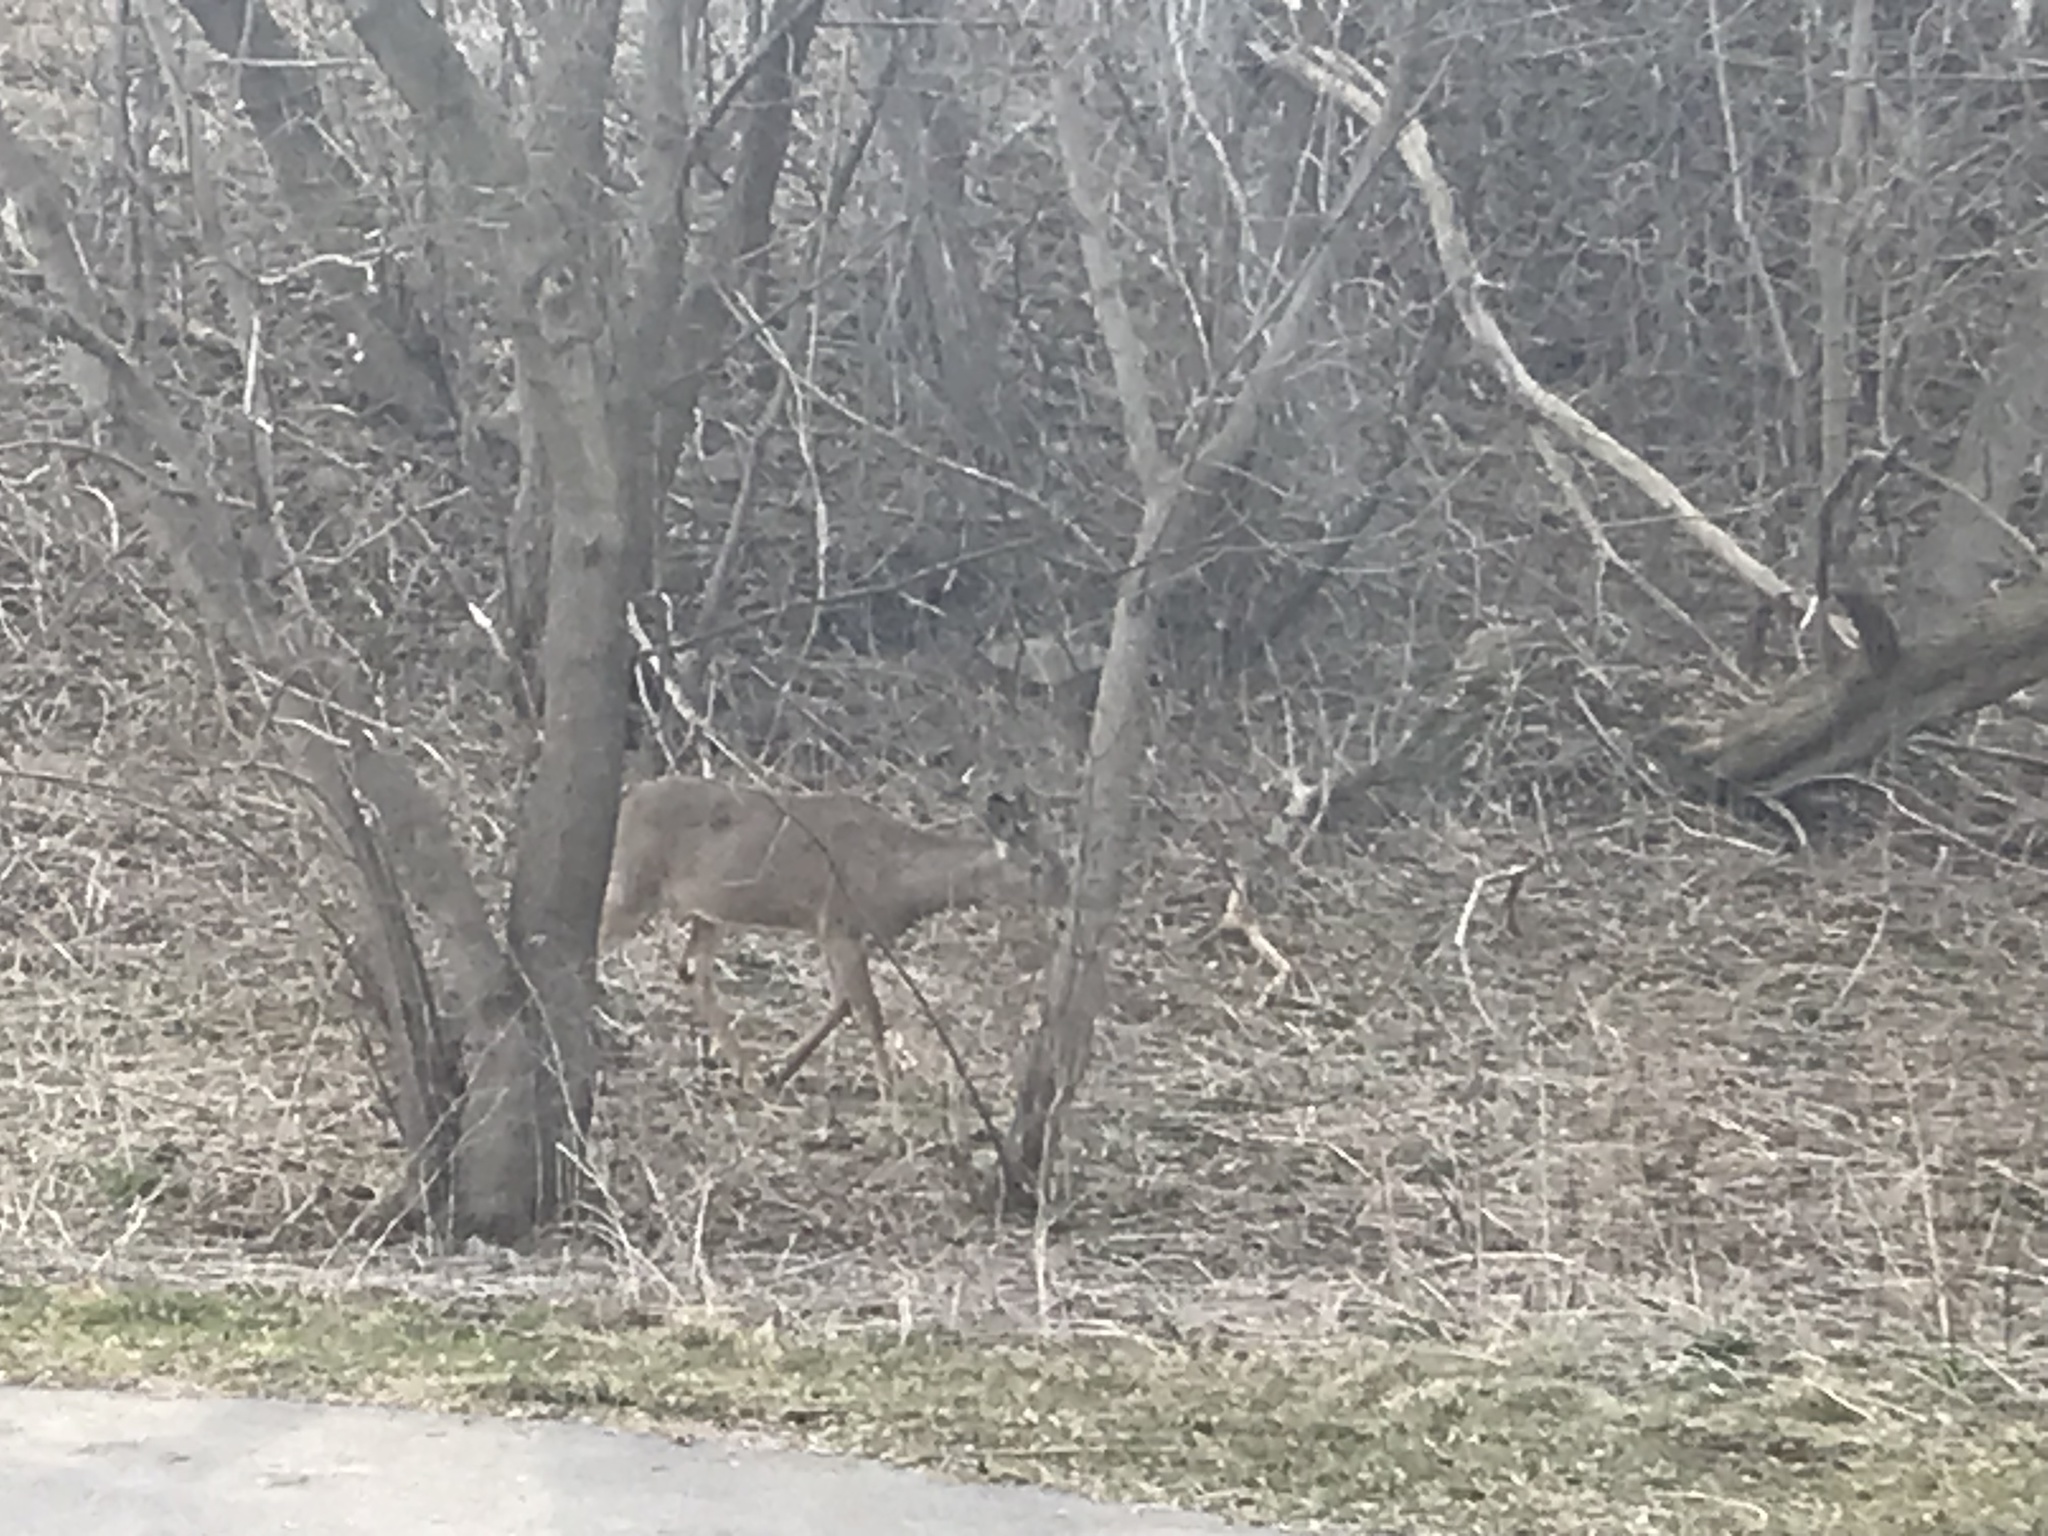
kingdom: Animalia
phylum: Chordata
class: Mammalia
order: Artiodactyla
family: Cervidae
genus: Odocoileus
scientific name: Odocoileus virginianus
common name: White-tailed deer
